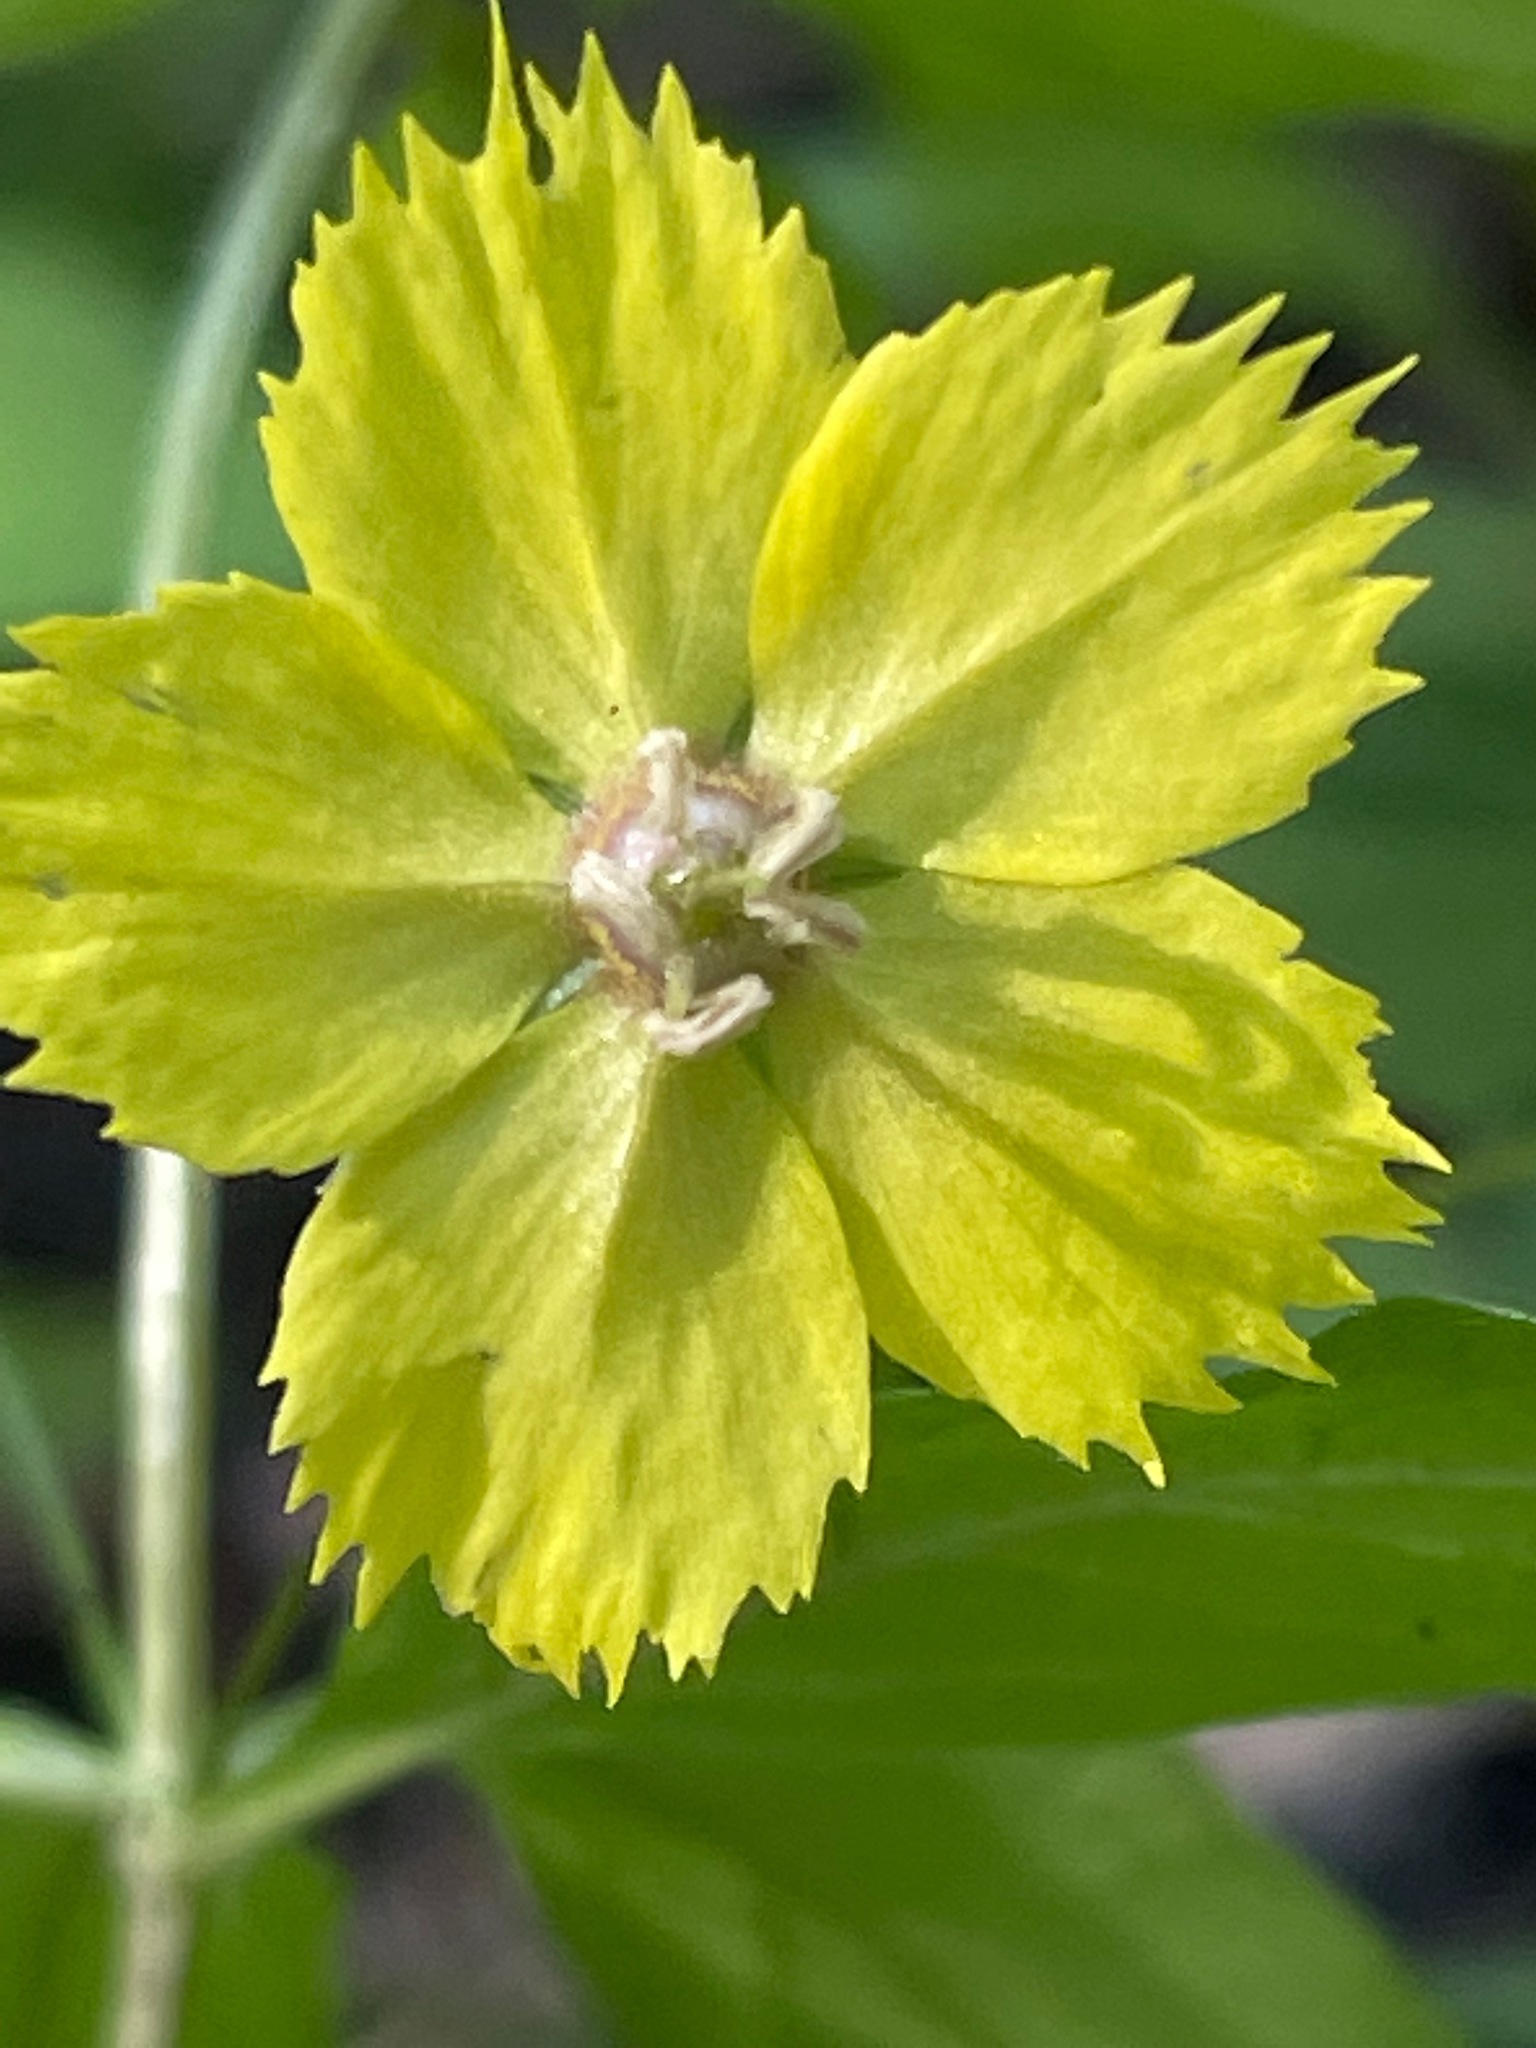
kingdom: Plantae
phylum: Tracheophyta
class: Magnoliopsida
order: Ericales
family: Primulaceae
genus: Lysimachia
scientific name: Lysimachia ciliata
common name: Fringed loosestrife
